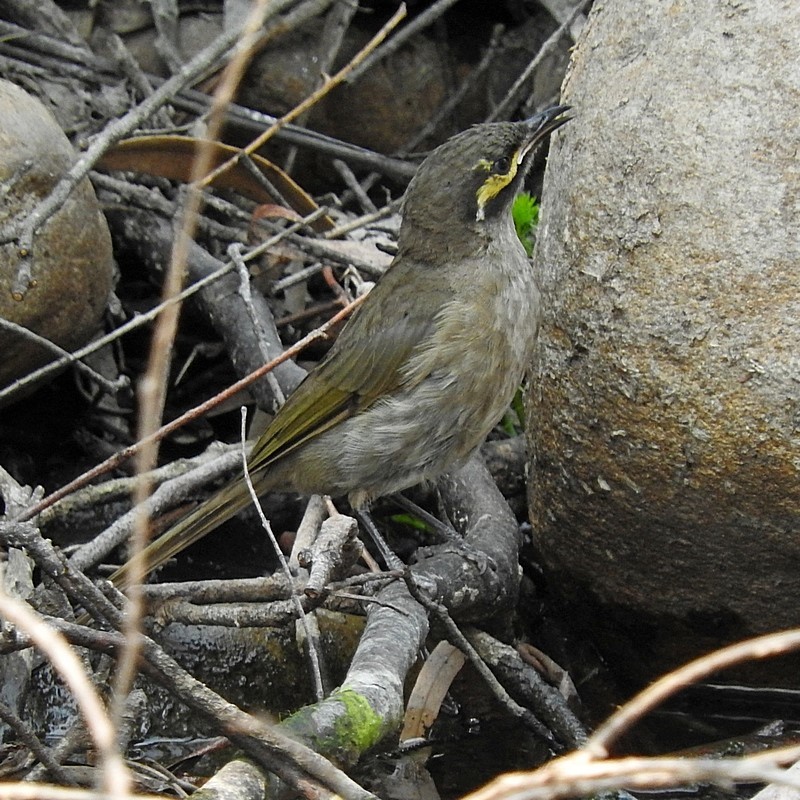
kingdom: Animalia
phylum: Chordata
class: Aves
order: Passeriformes
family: Meliphagidae
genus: Caligavis
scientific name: Caligavis chrysops
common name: Yellow-faced honeyeater
